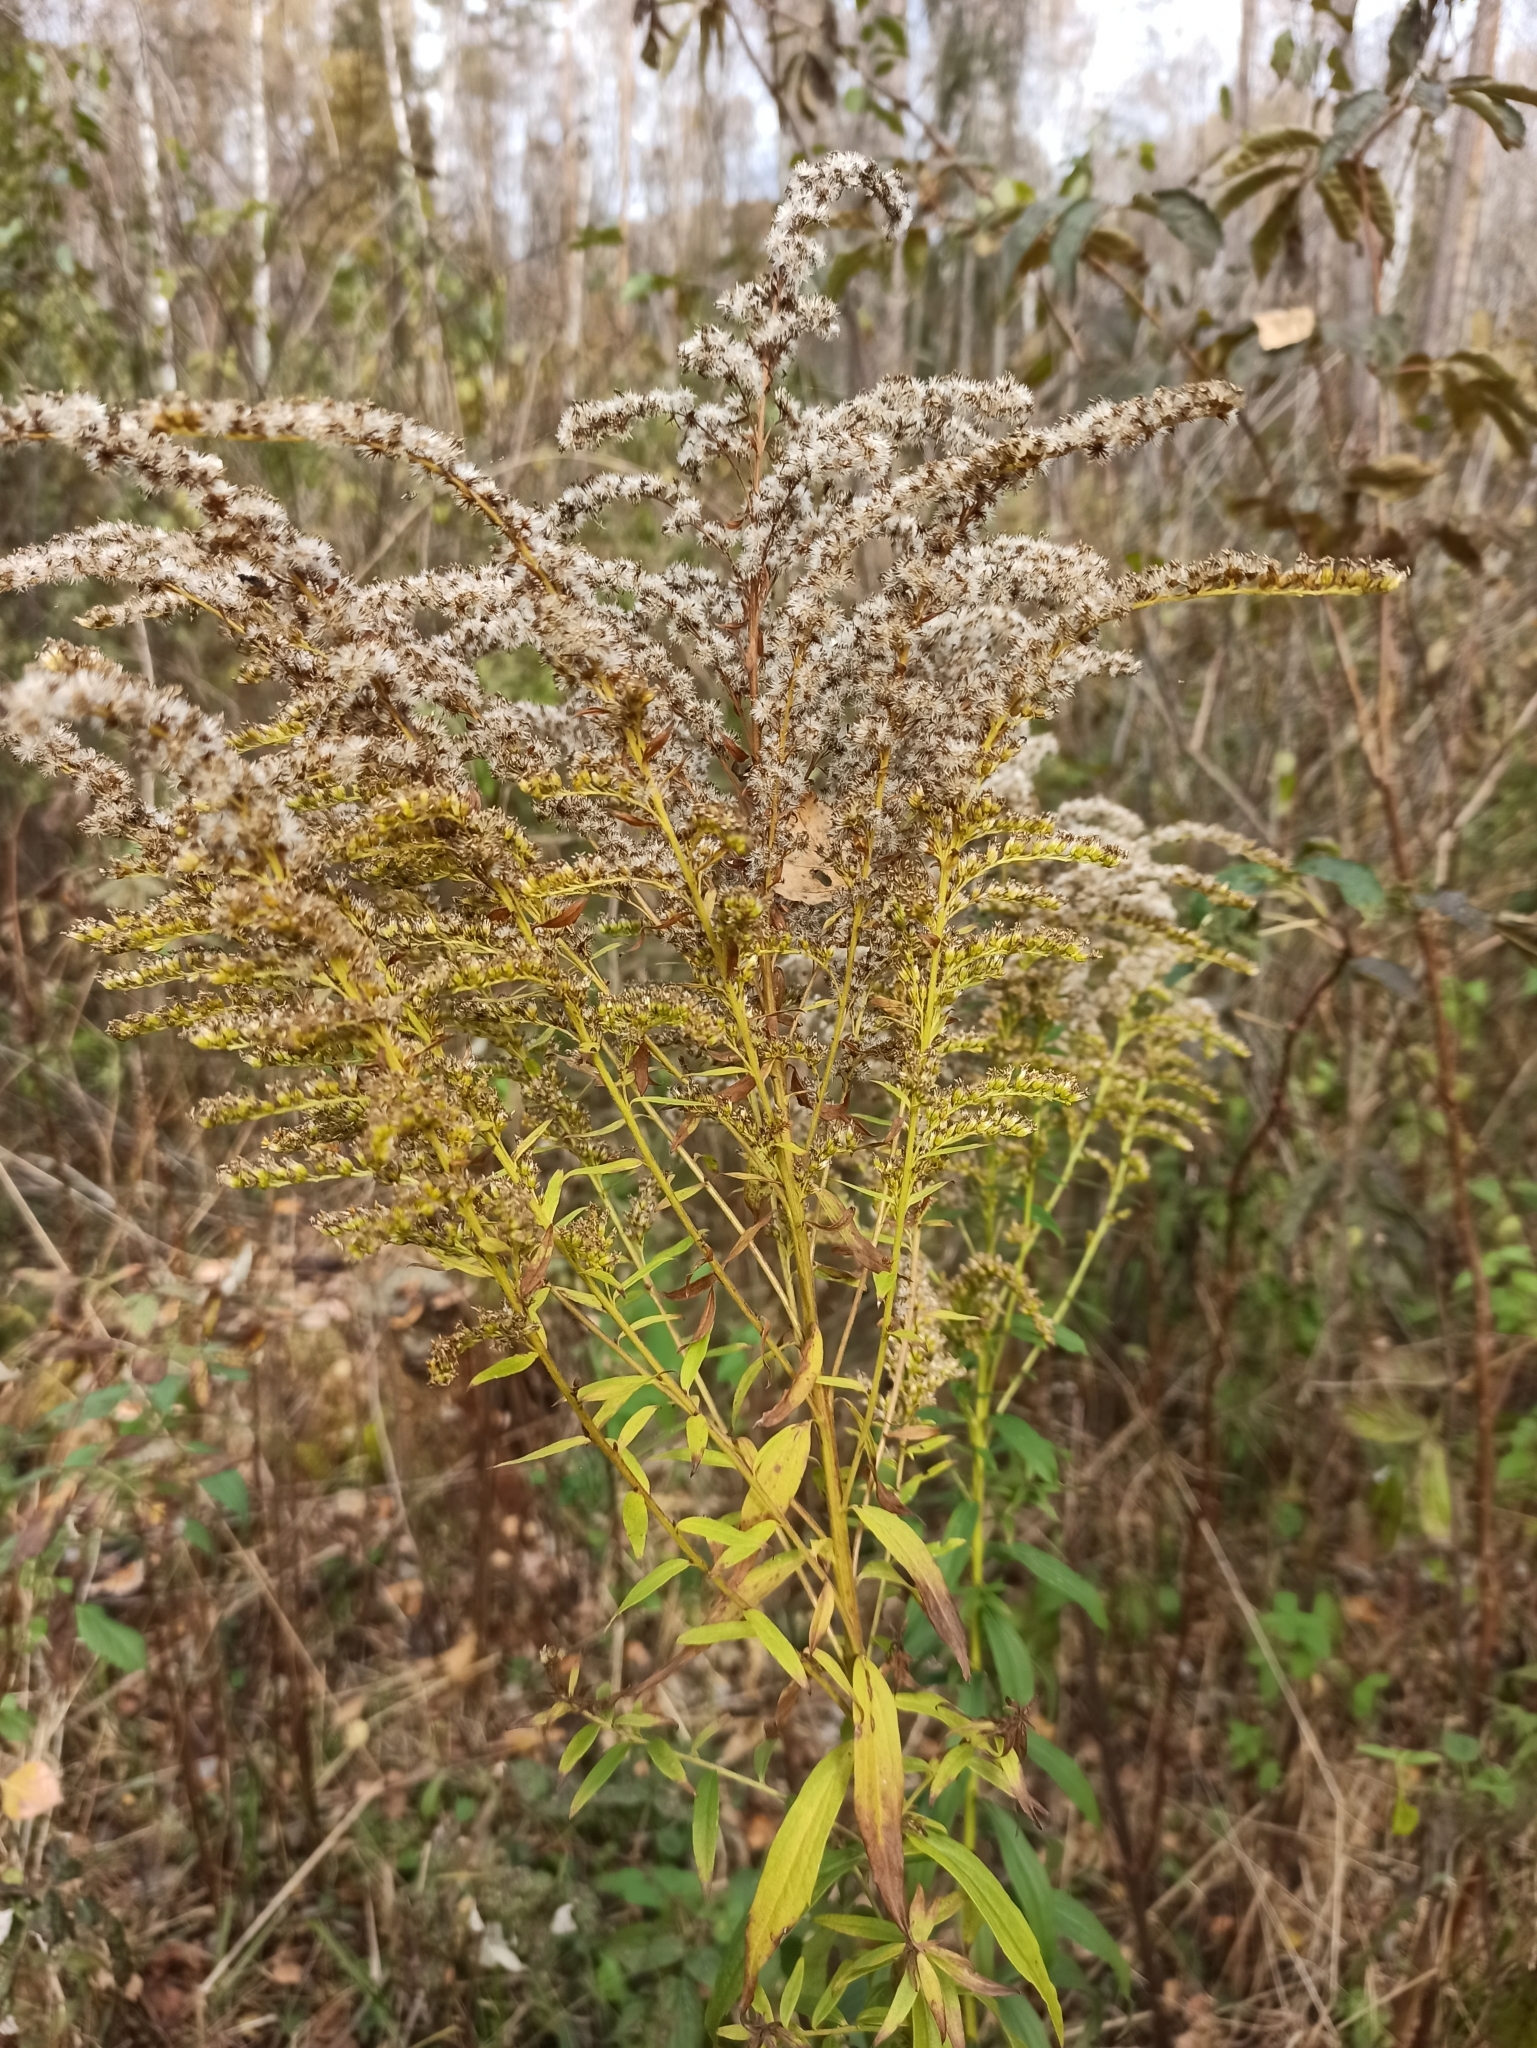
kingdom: Plantae
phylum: Tracheophyta
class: Magnoliopsida
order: Asterales
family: Asteraceae
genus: Solidago
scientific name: Solidago canadensis
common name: Canada goldenrod
